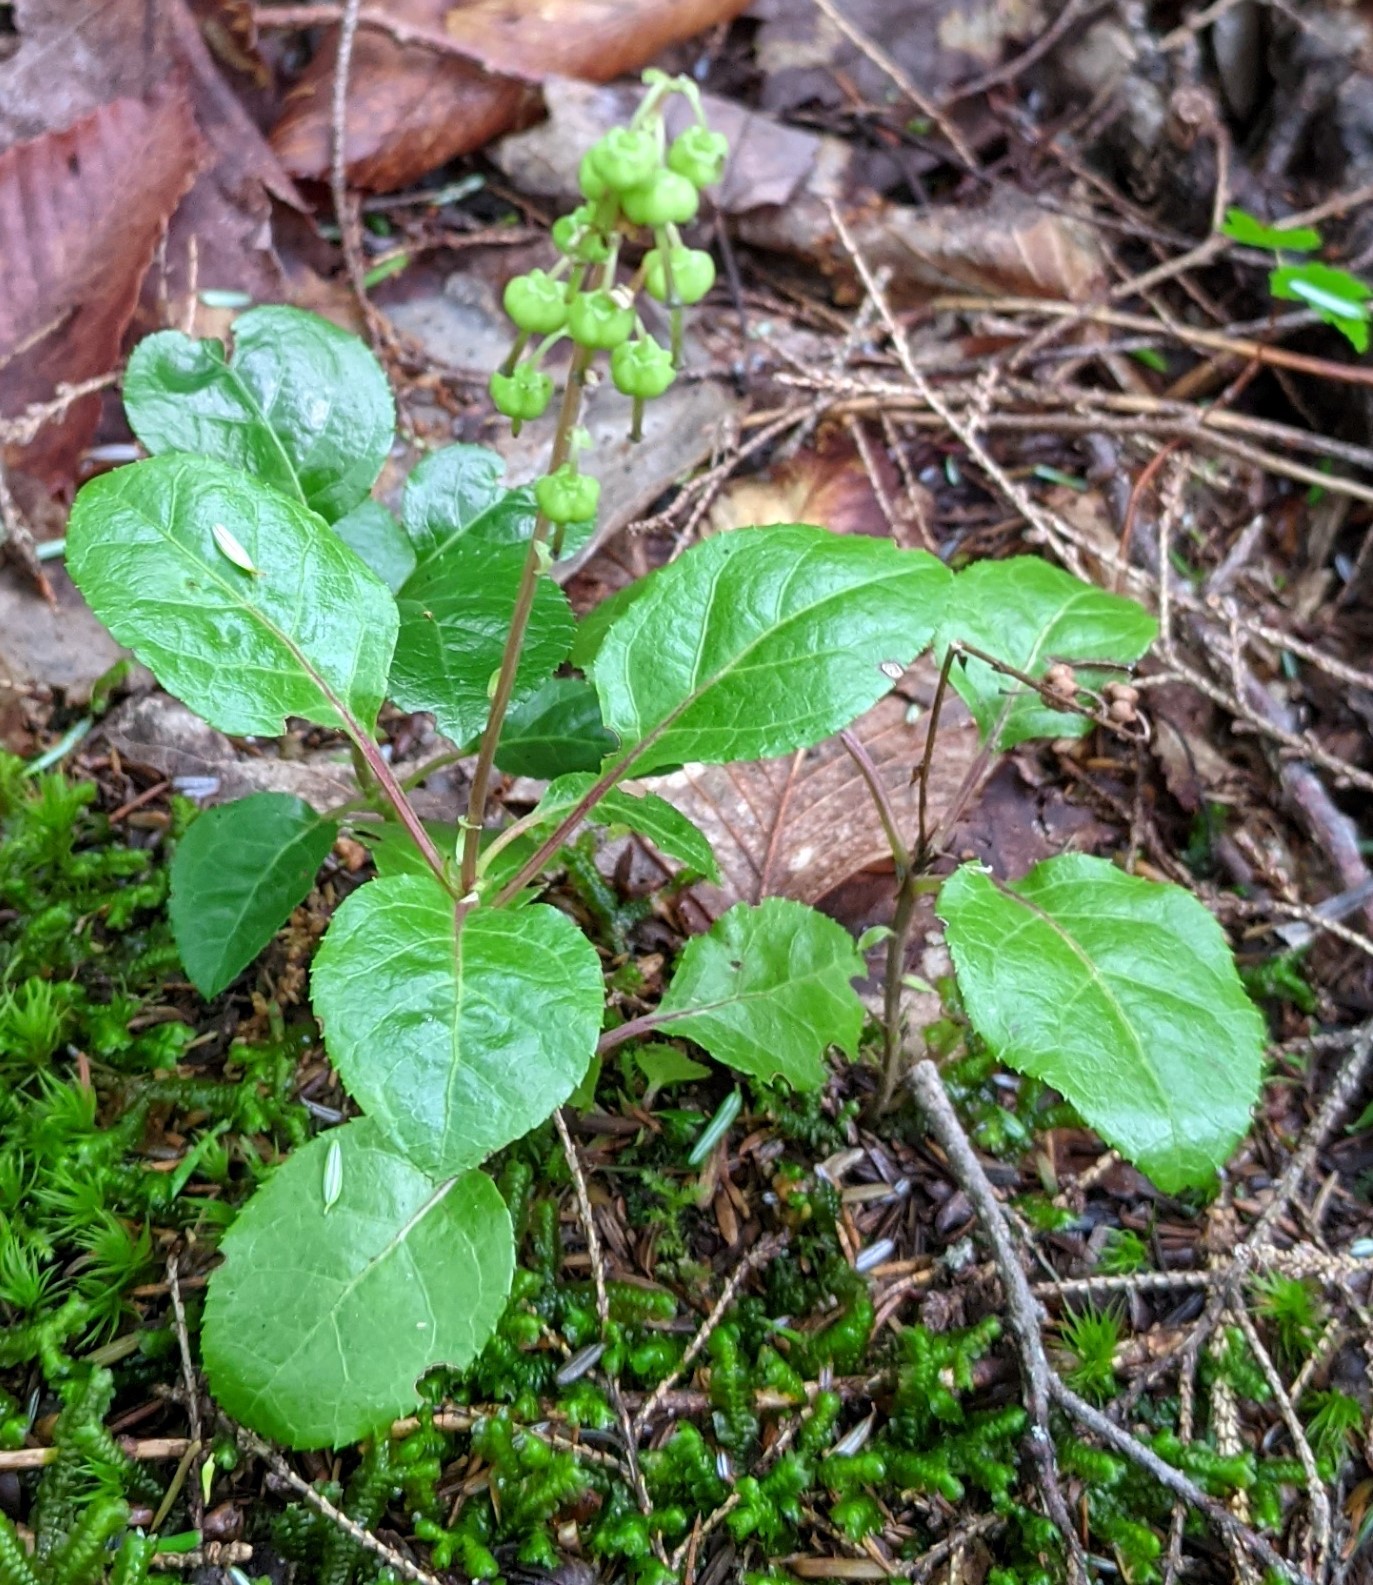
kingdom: Plantae
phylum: Tracheophyta
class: Magnoliopsida
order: Ericales
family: Ericaceae
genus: Orthilia
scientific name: Orthilia secunda
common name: One-sided orthilia
